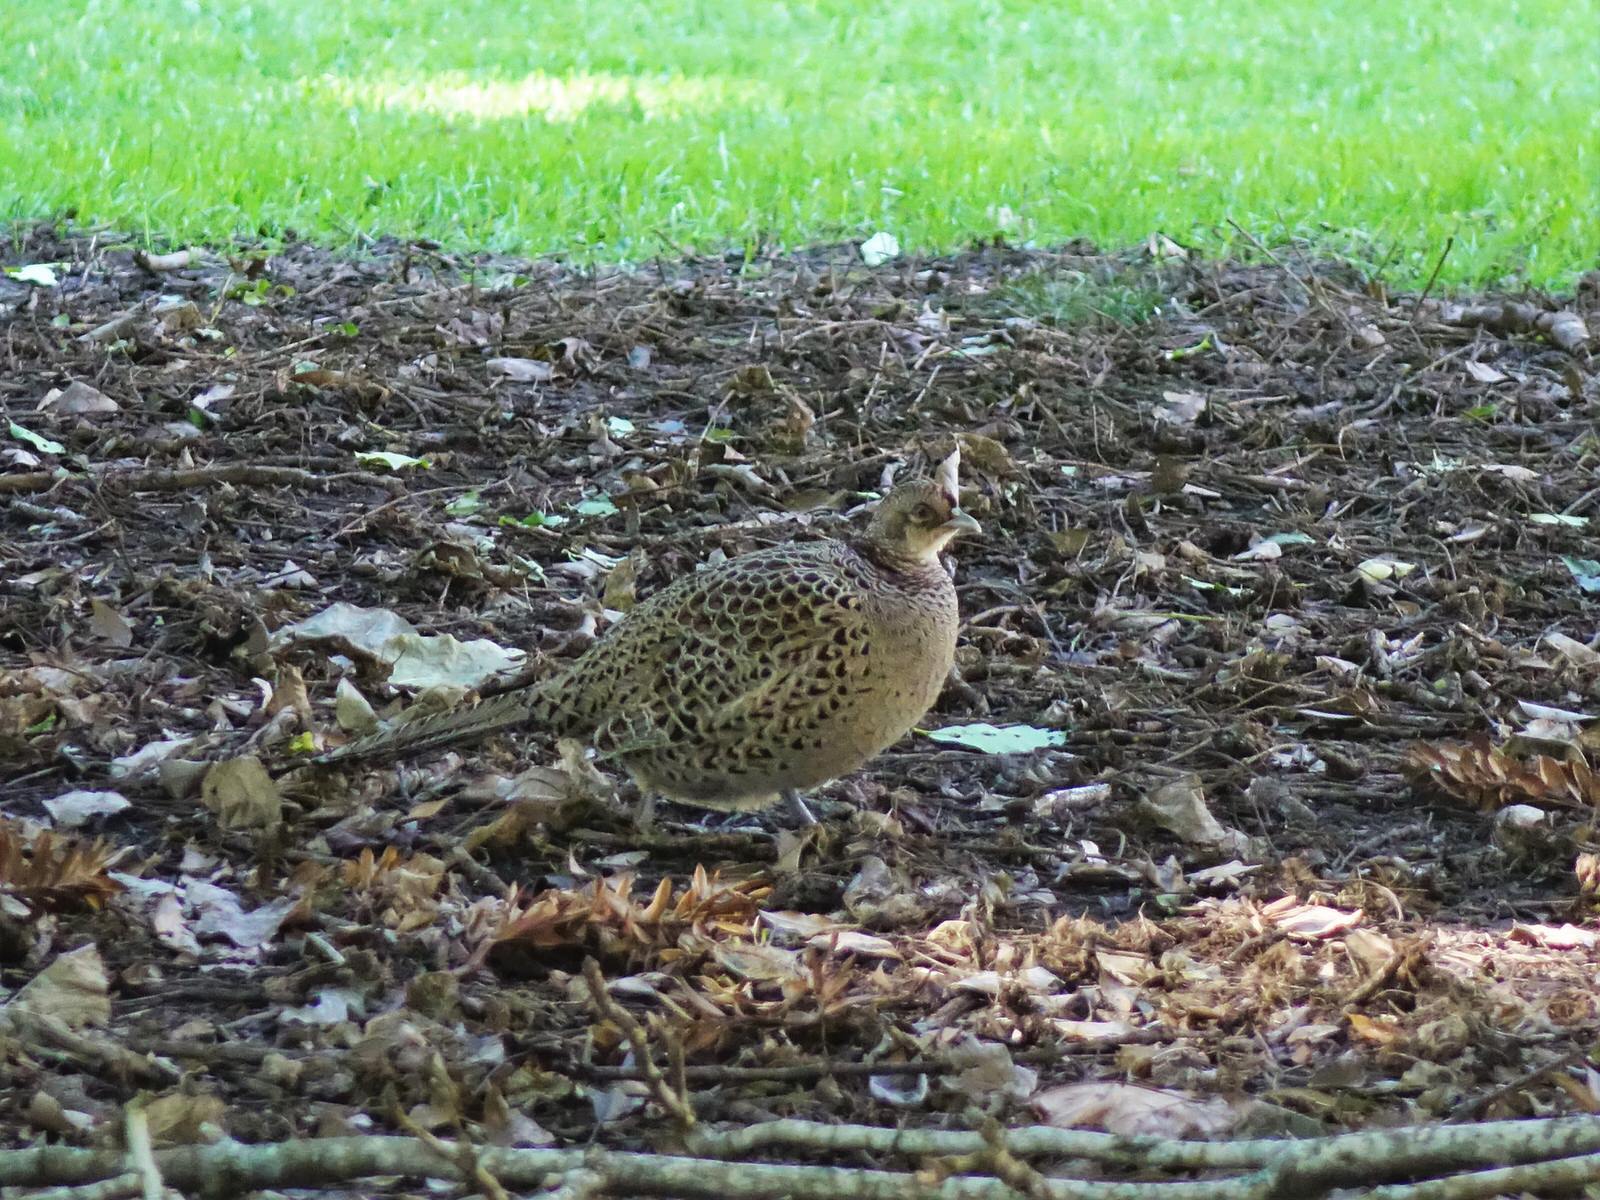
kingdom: Animalia
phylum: Chordata
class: Aves
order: Galliformes
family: Phasianidae
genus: Phasianus
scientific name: Phasianus colchicus
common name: Common pheasant
